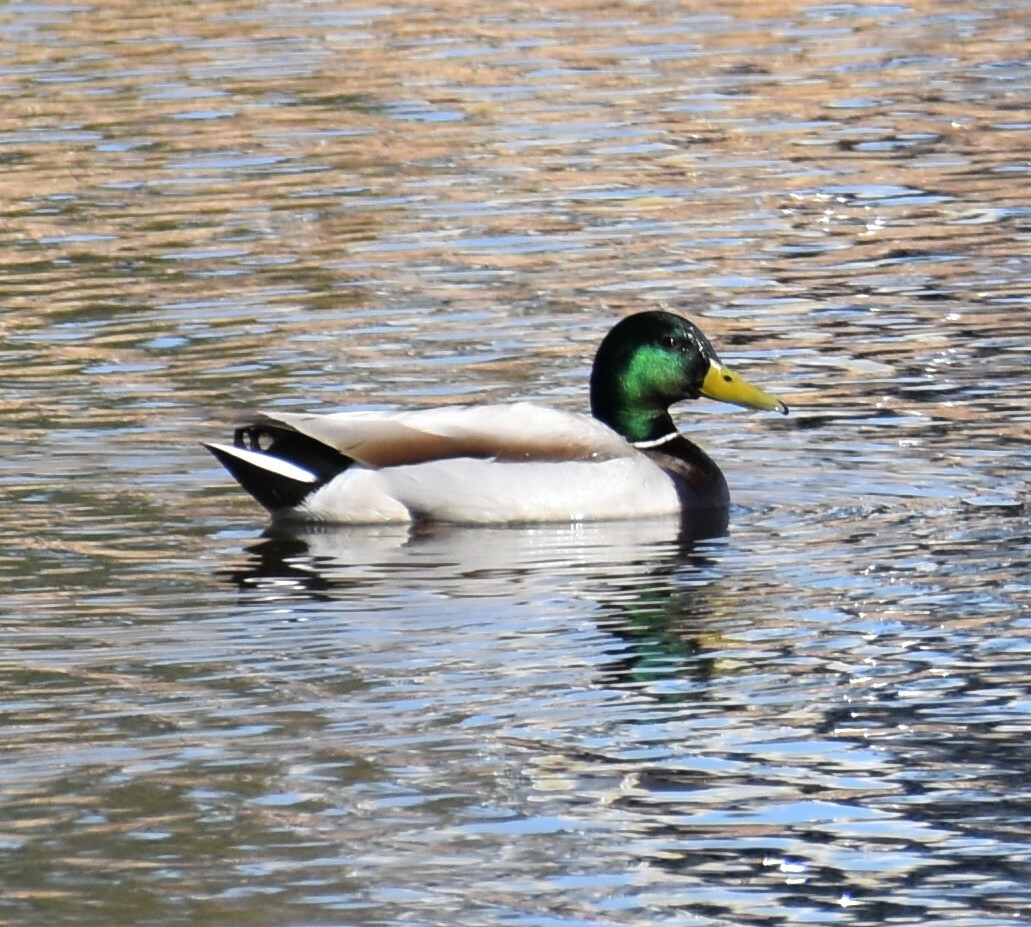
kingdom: Animalia
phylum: Chordata
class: Aves
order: Anseriformes
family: Anatidae
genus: Anas
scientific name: Anas platyrhynchos
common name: Mallard
